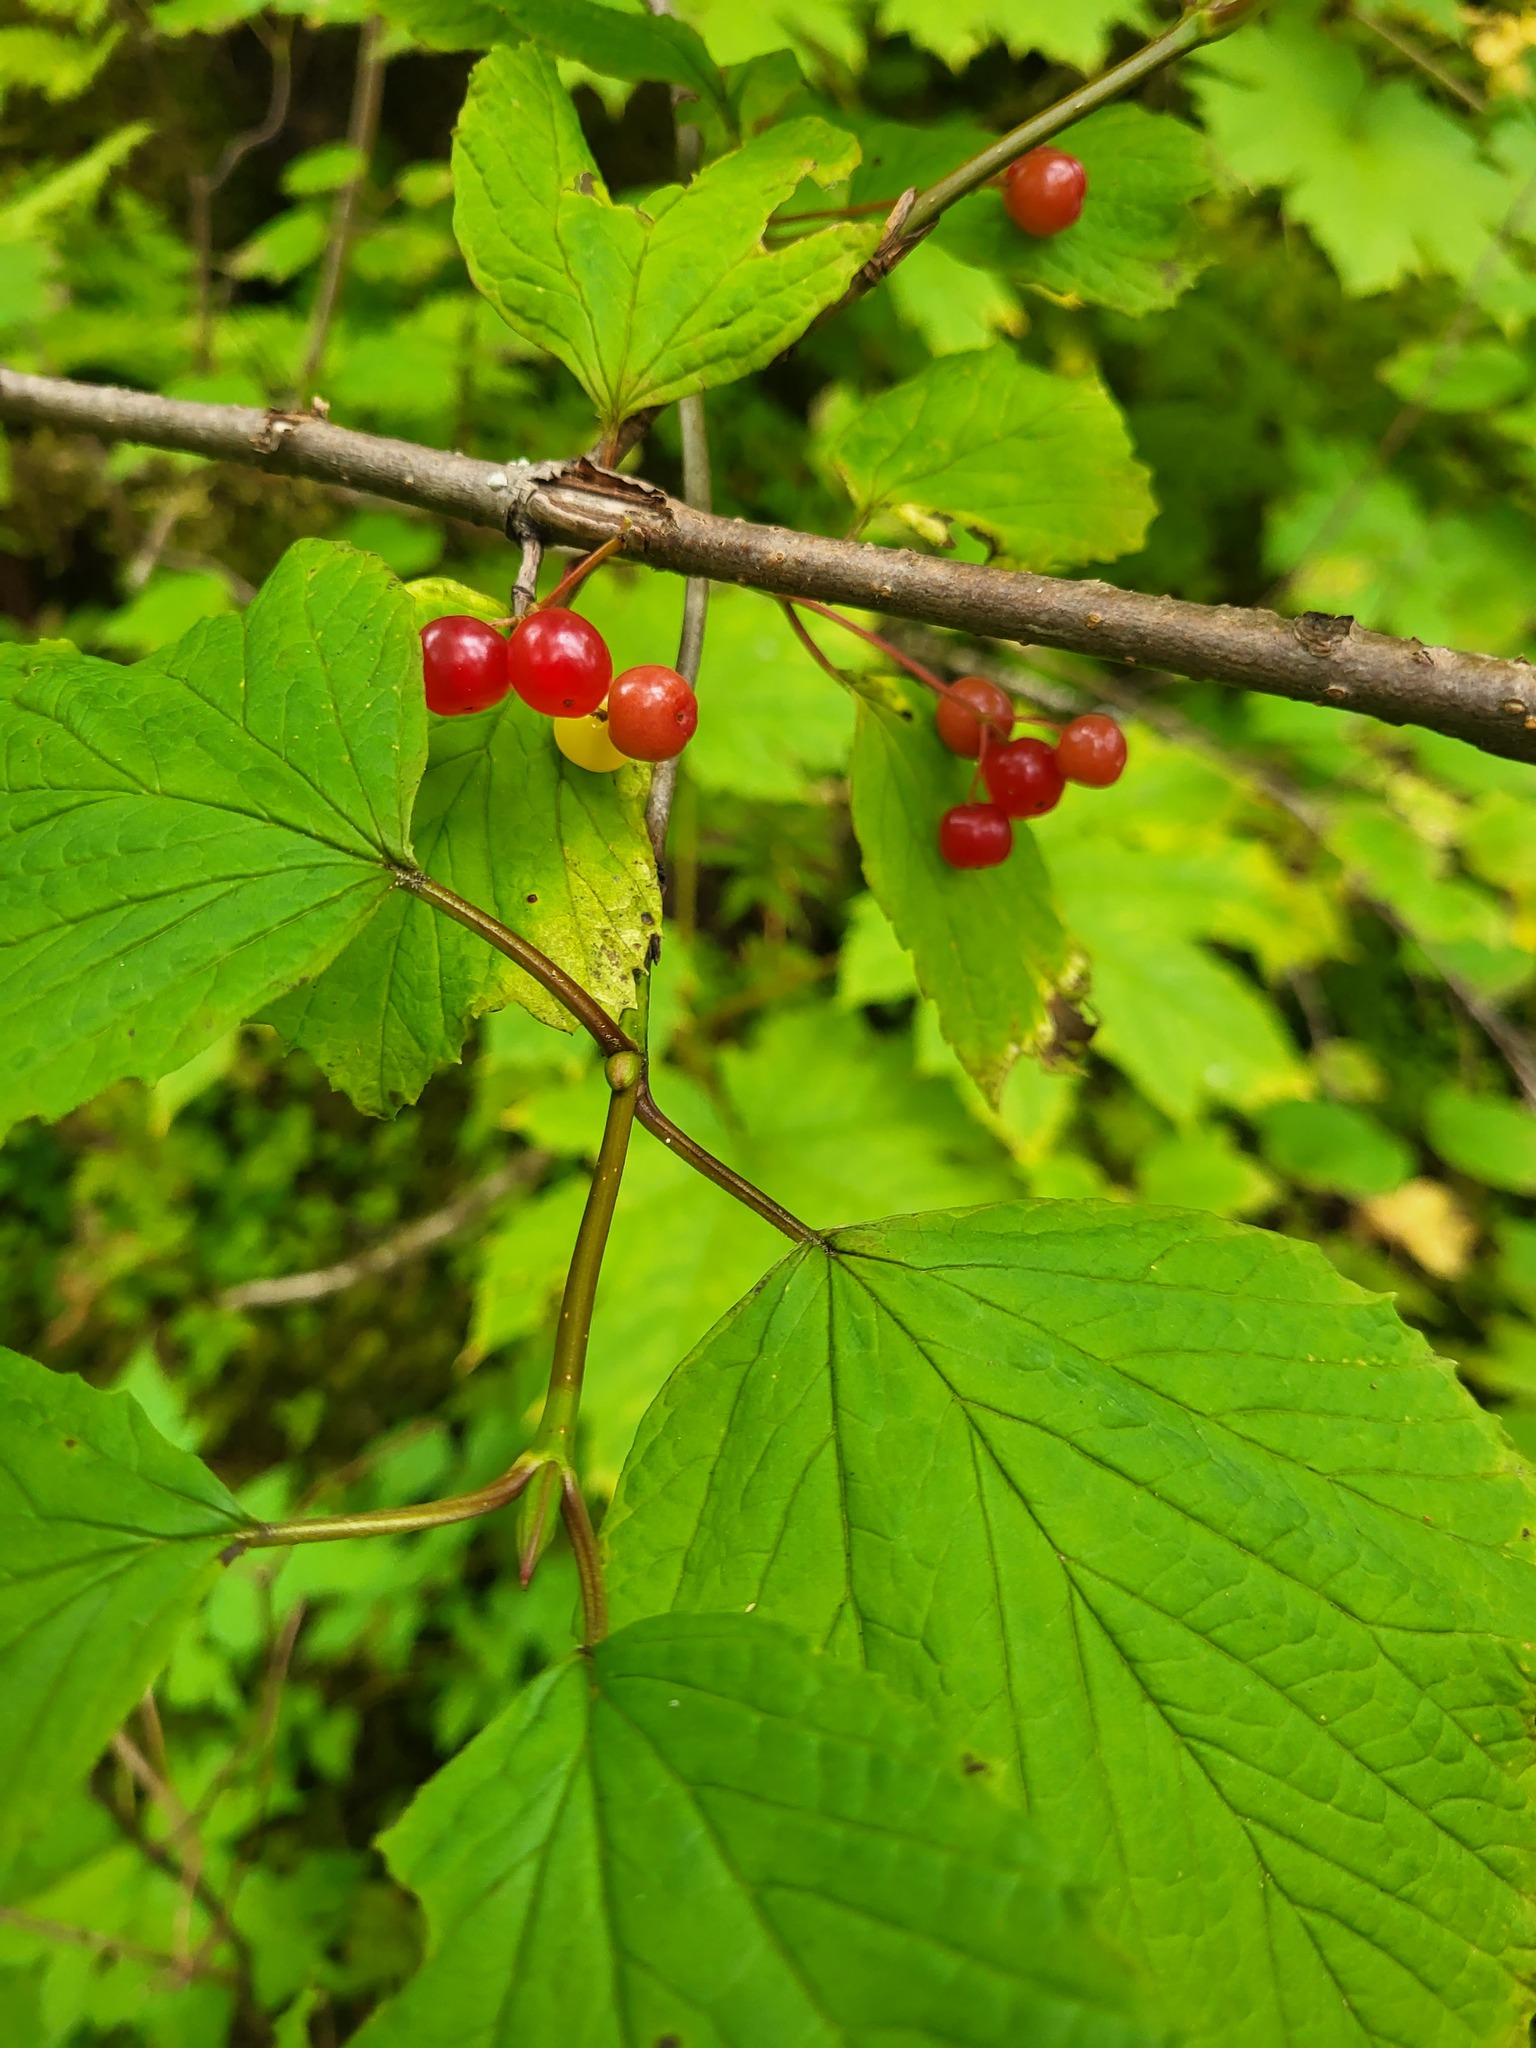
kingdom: Plantae
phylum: Tracheophyta
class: Magnoliopsida
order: Dipsacales
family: Viburnaceae
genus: Viburnum
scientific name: Viburnum edule
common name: Mooseberry
